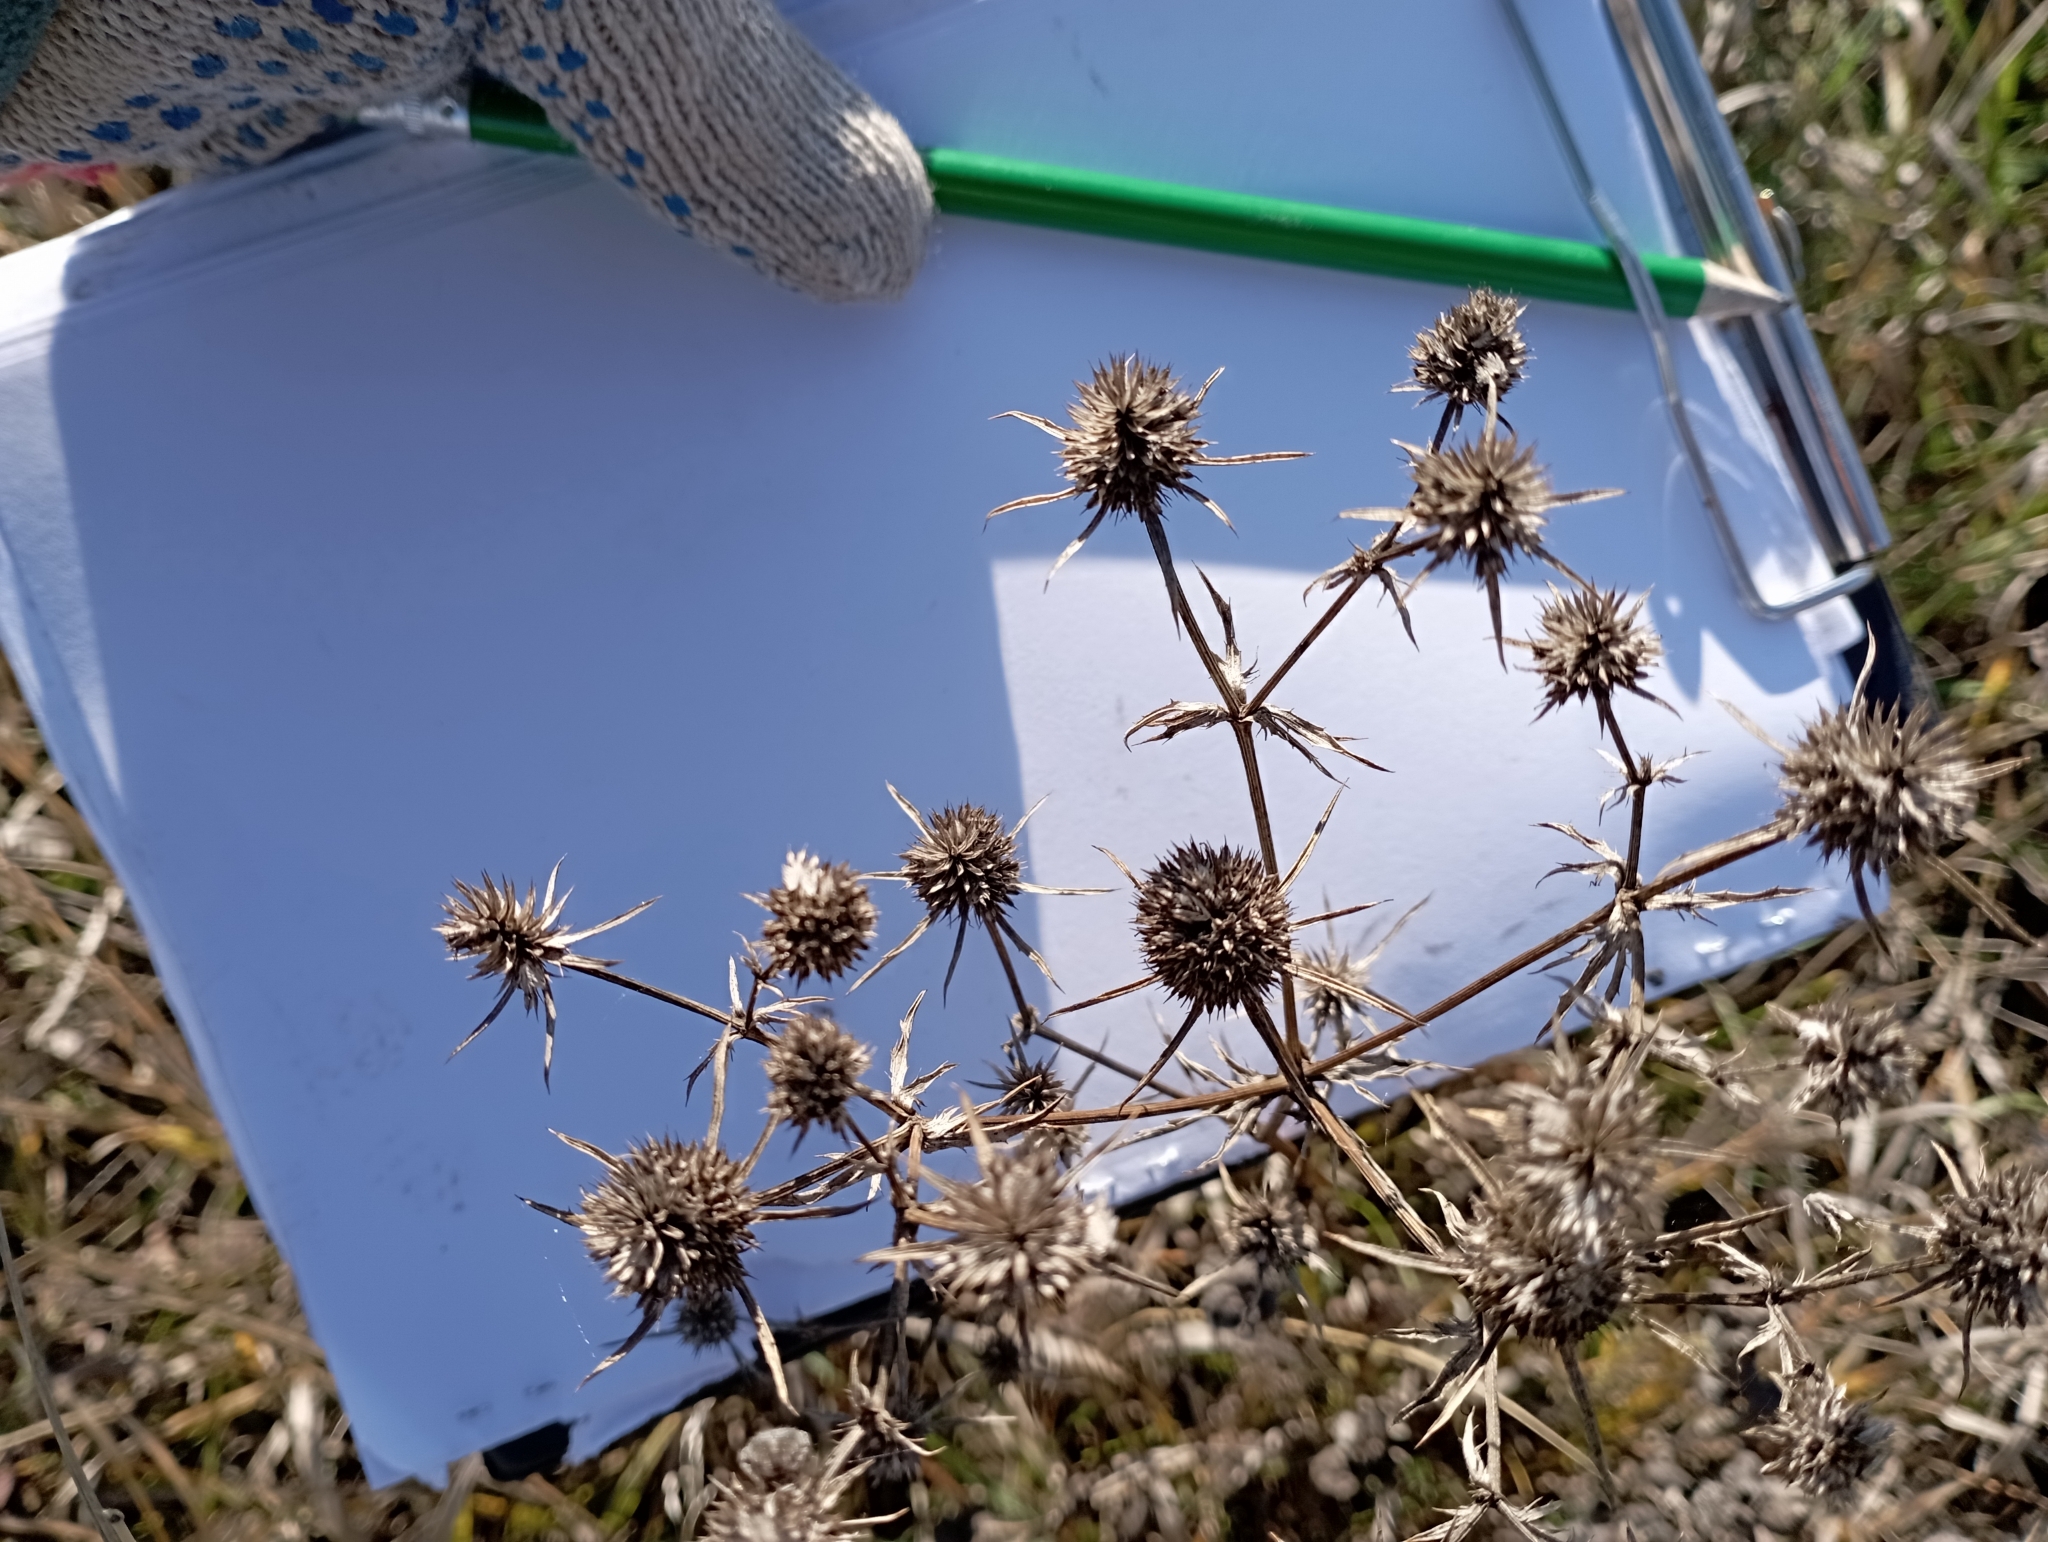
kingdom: Plantae
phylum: Tracheophyta
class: Magnoliopsida
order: Apiales
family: Apiaceae
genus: Eryngium
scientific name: Eryngium planum
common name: Blue eryngo
